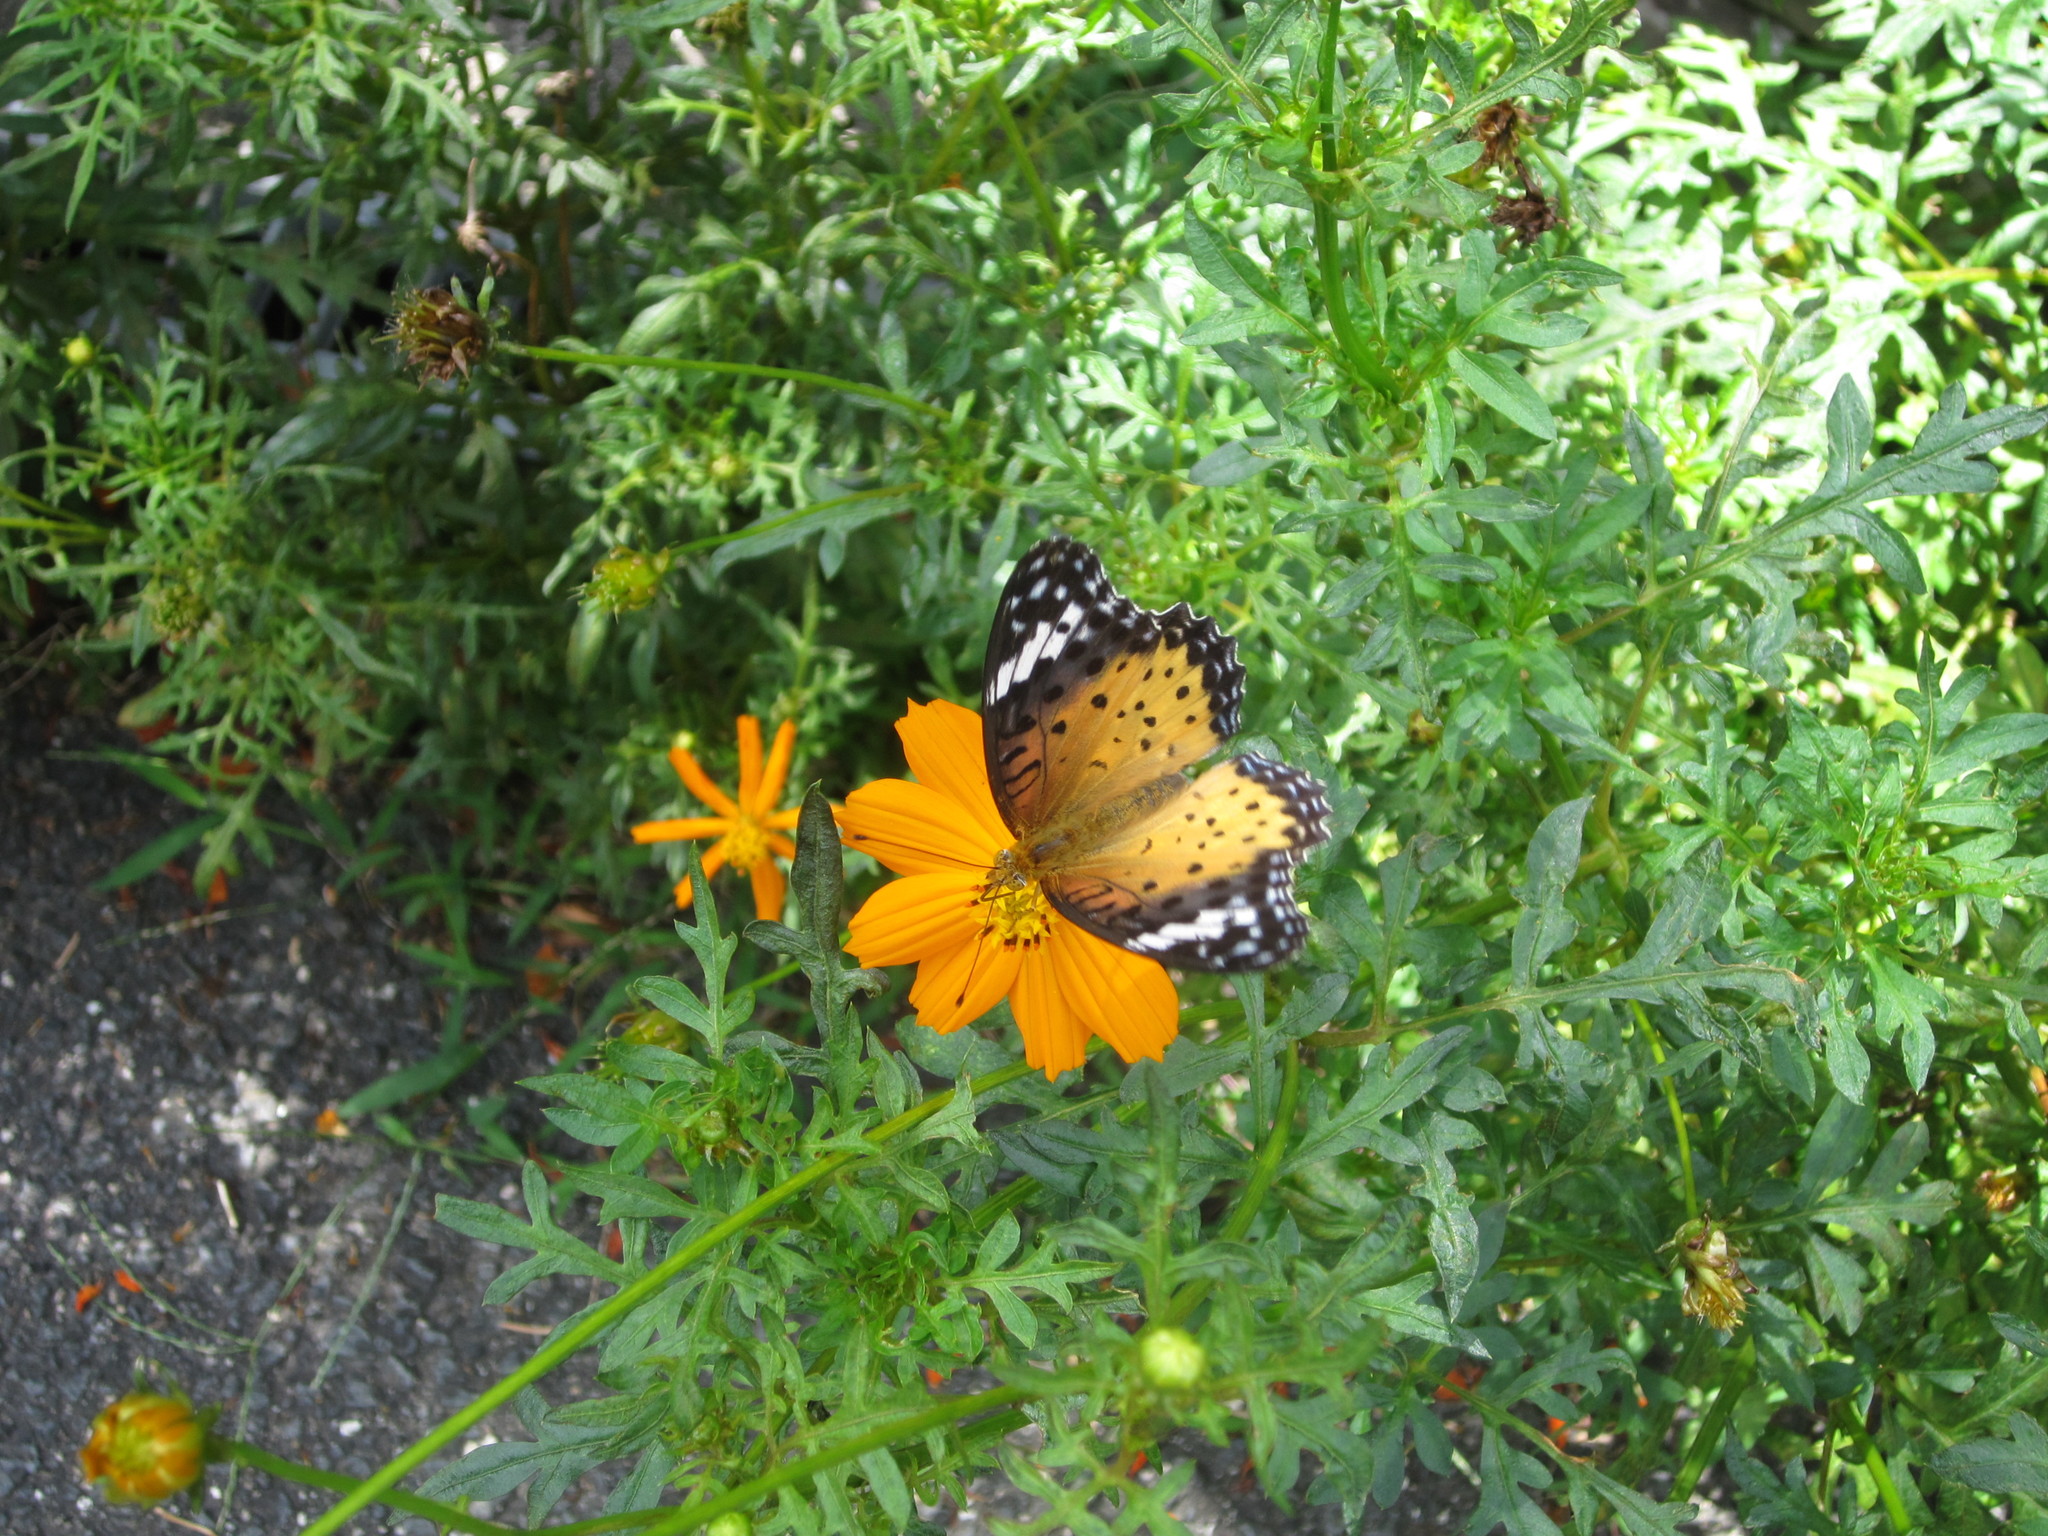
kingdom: Animalia
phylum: Arthropoda
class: Insecta
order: Lepidoptera
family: Nymphalidae
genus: Argynnis
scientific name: Argynnis hyperbius
